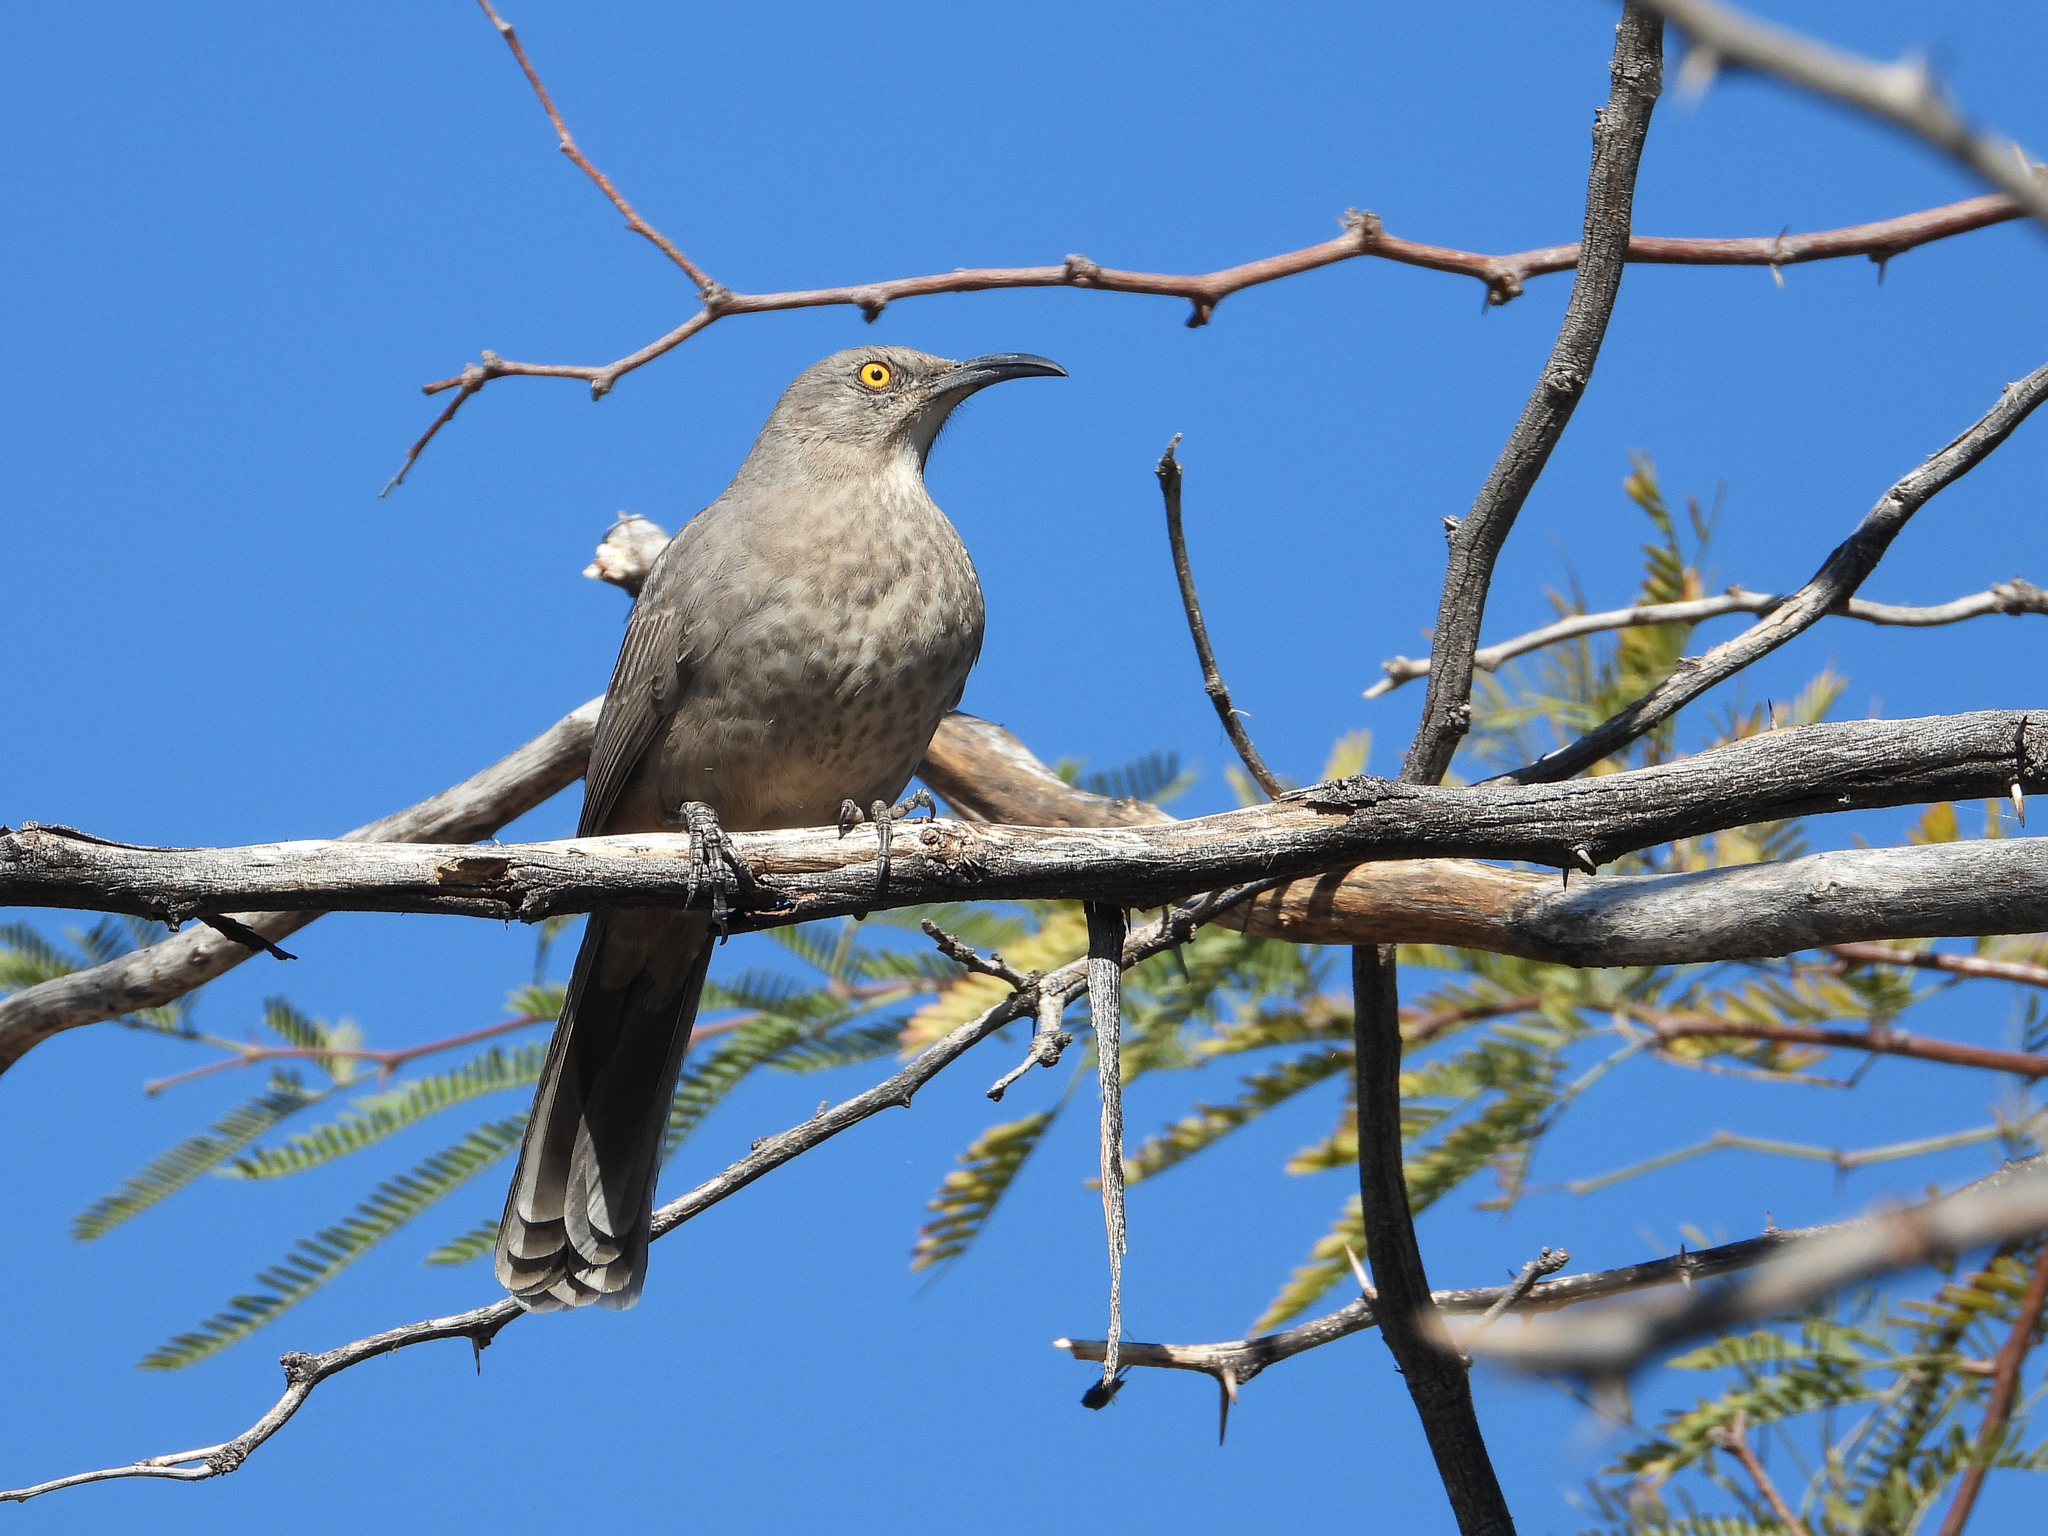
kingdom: Animalia
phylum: Chordata
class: Aves
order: Passeriformes
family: Mimidae
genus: Toxostoma
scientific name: Toxostoma curvirostre
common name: Curve-billed thrasher
